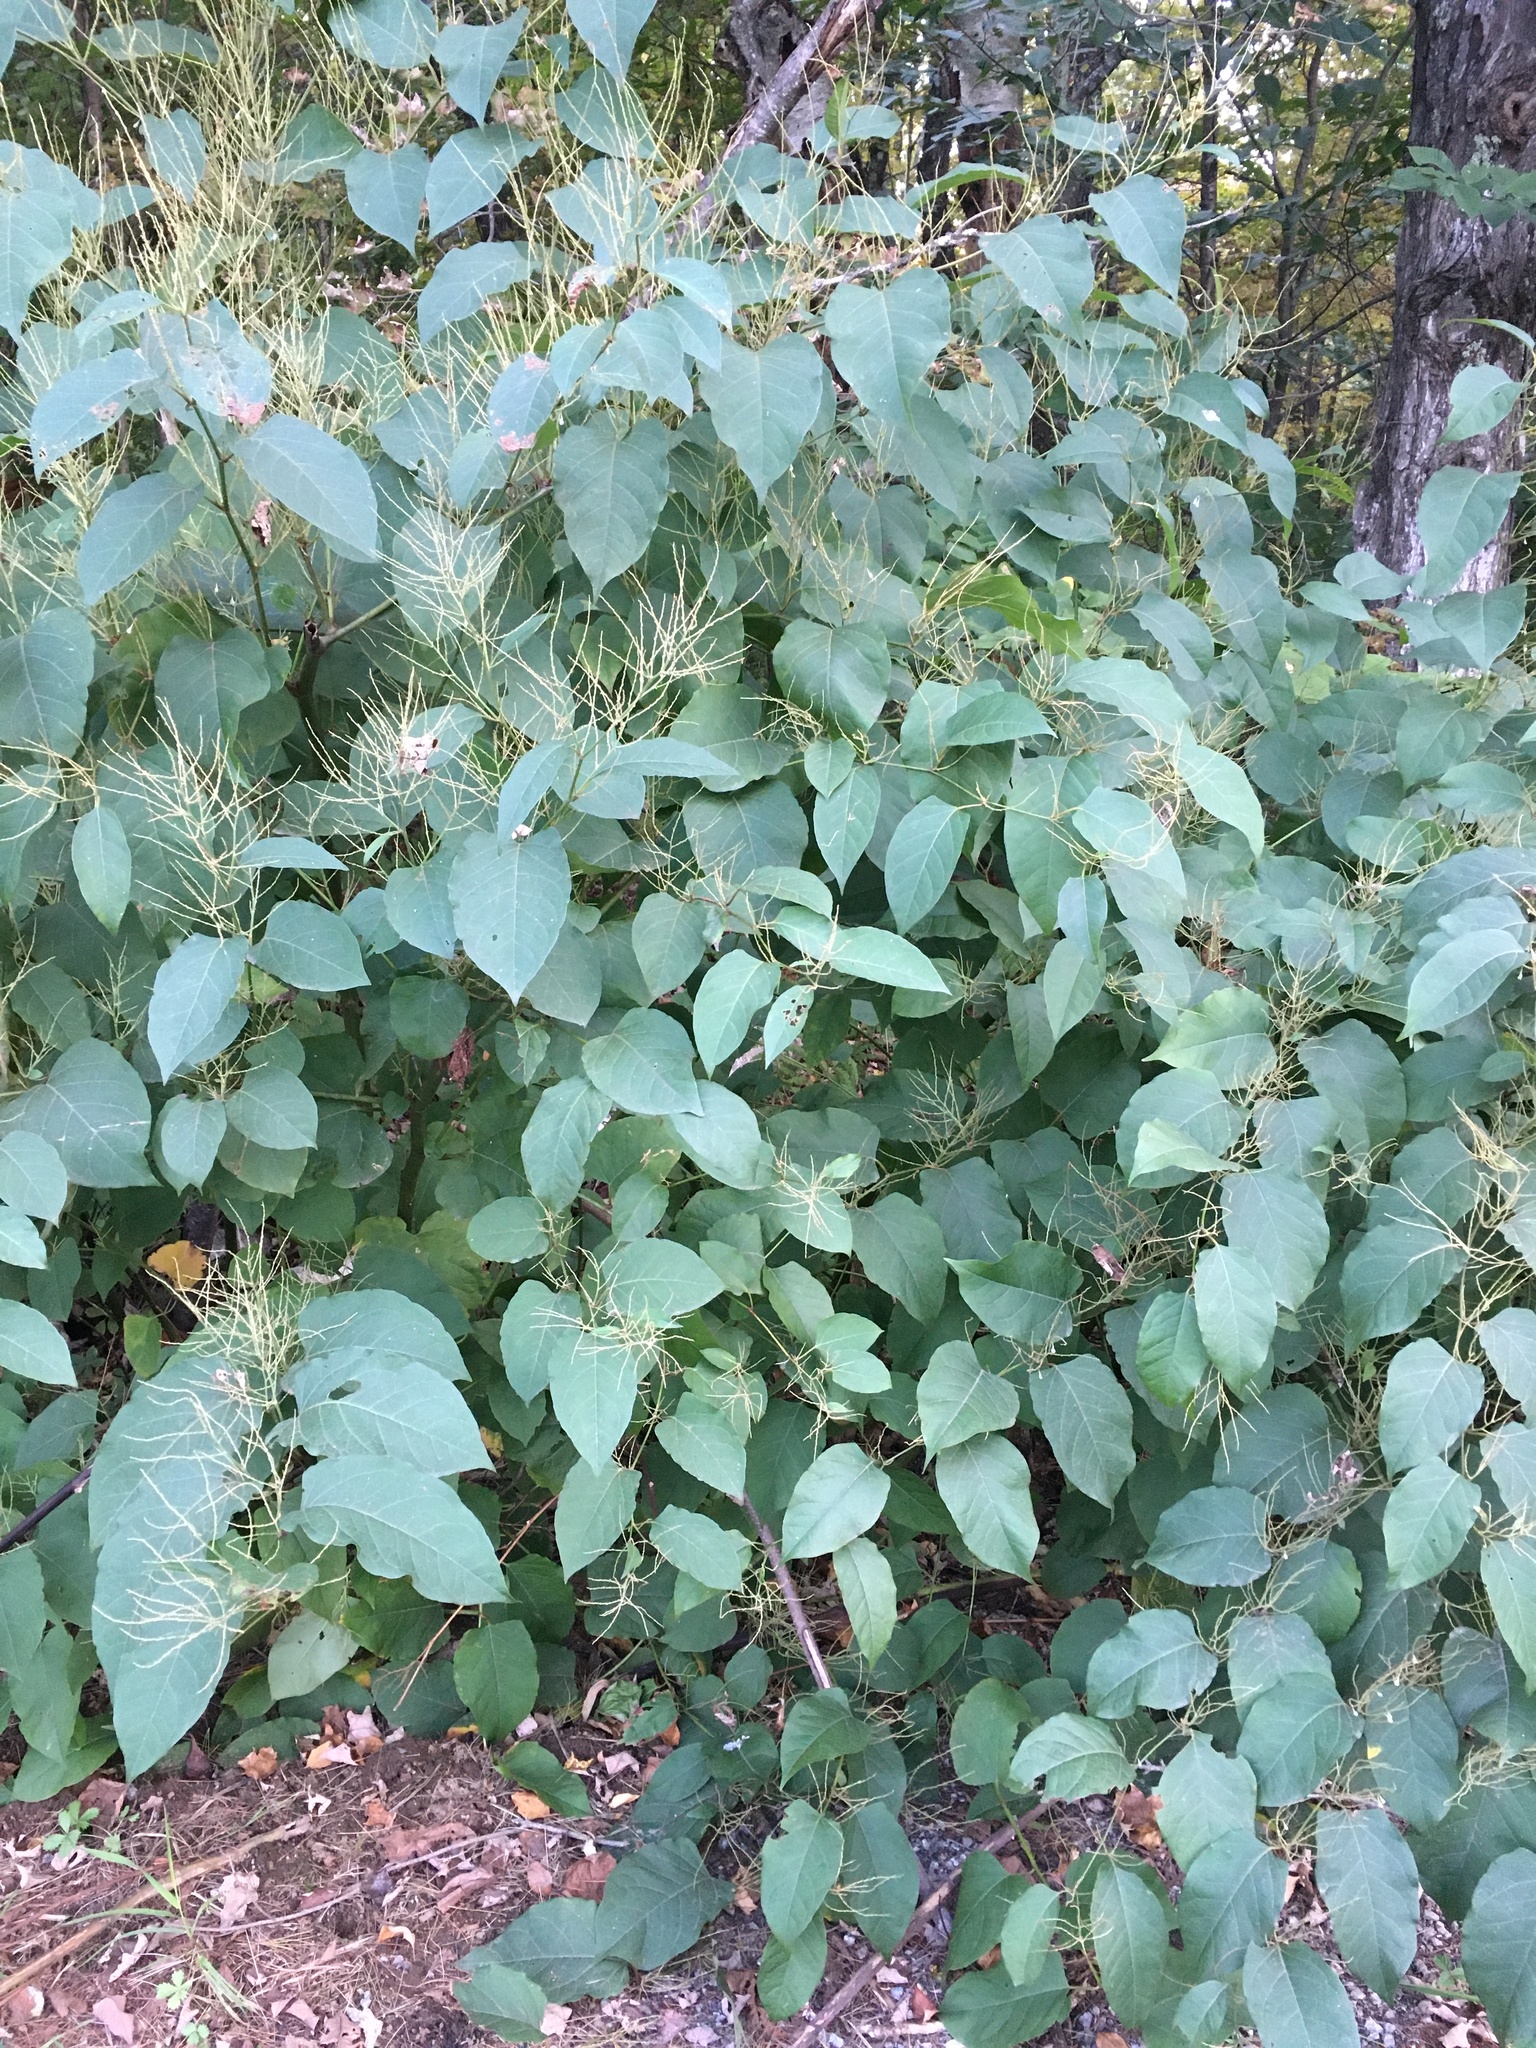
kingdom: Plantae
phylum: Tracheophyta
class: Magnoliopsida
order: Caryophyllales
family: Polygonaceae
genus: Reynoutria
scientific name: Reynoutria japonica
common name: Japanese knotweed
